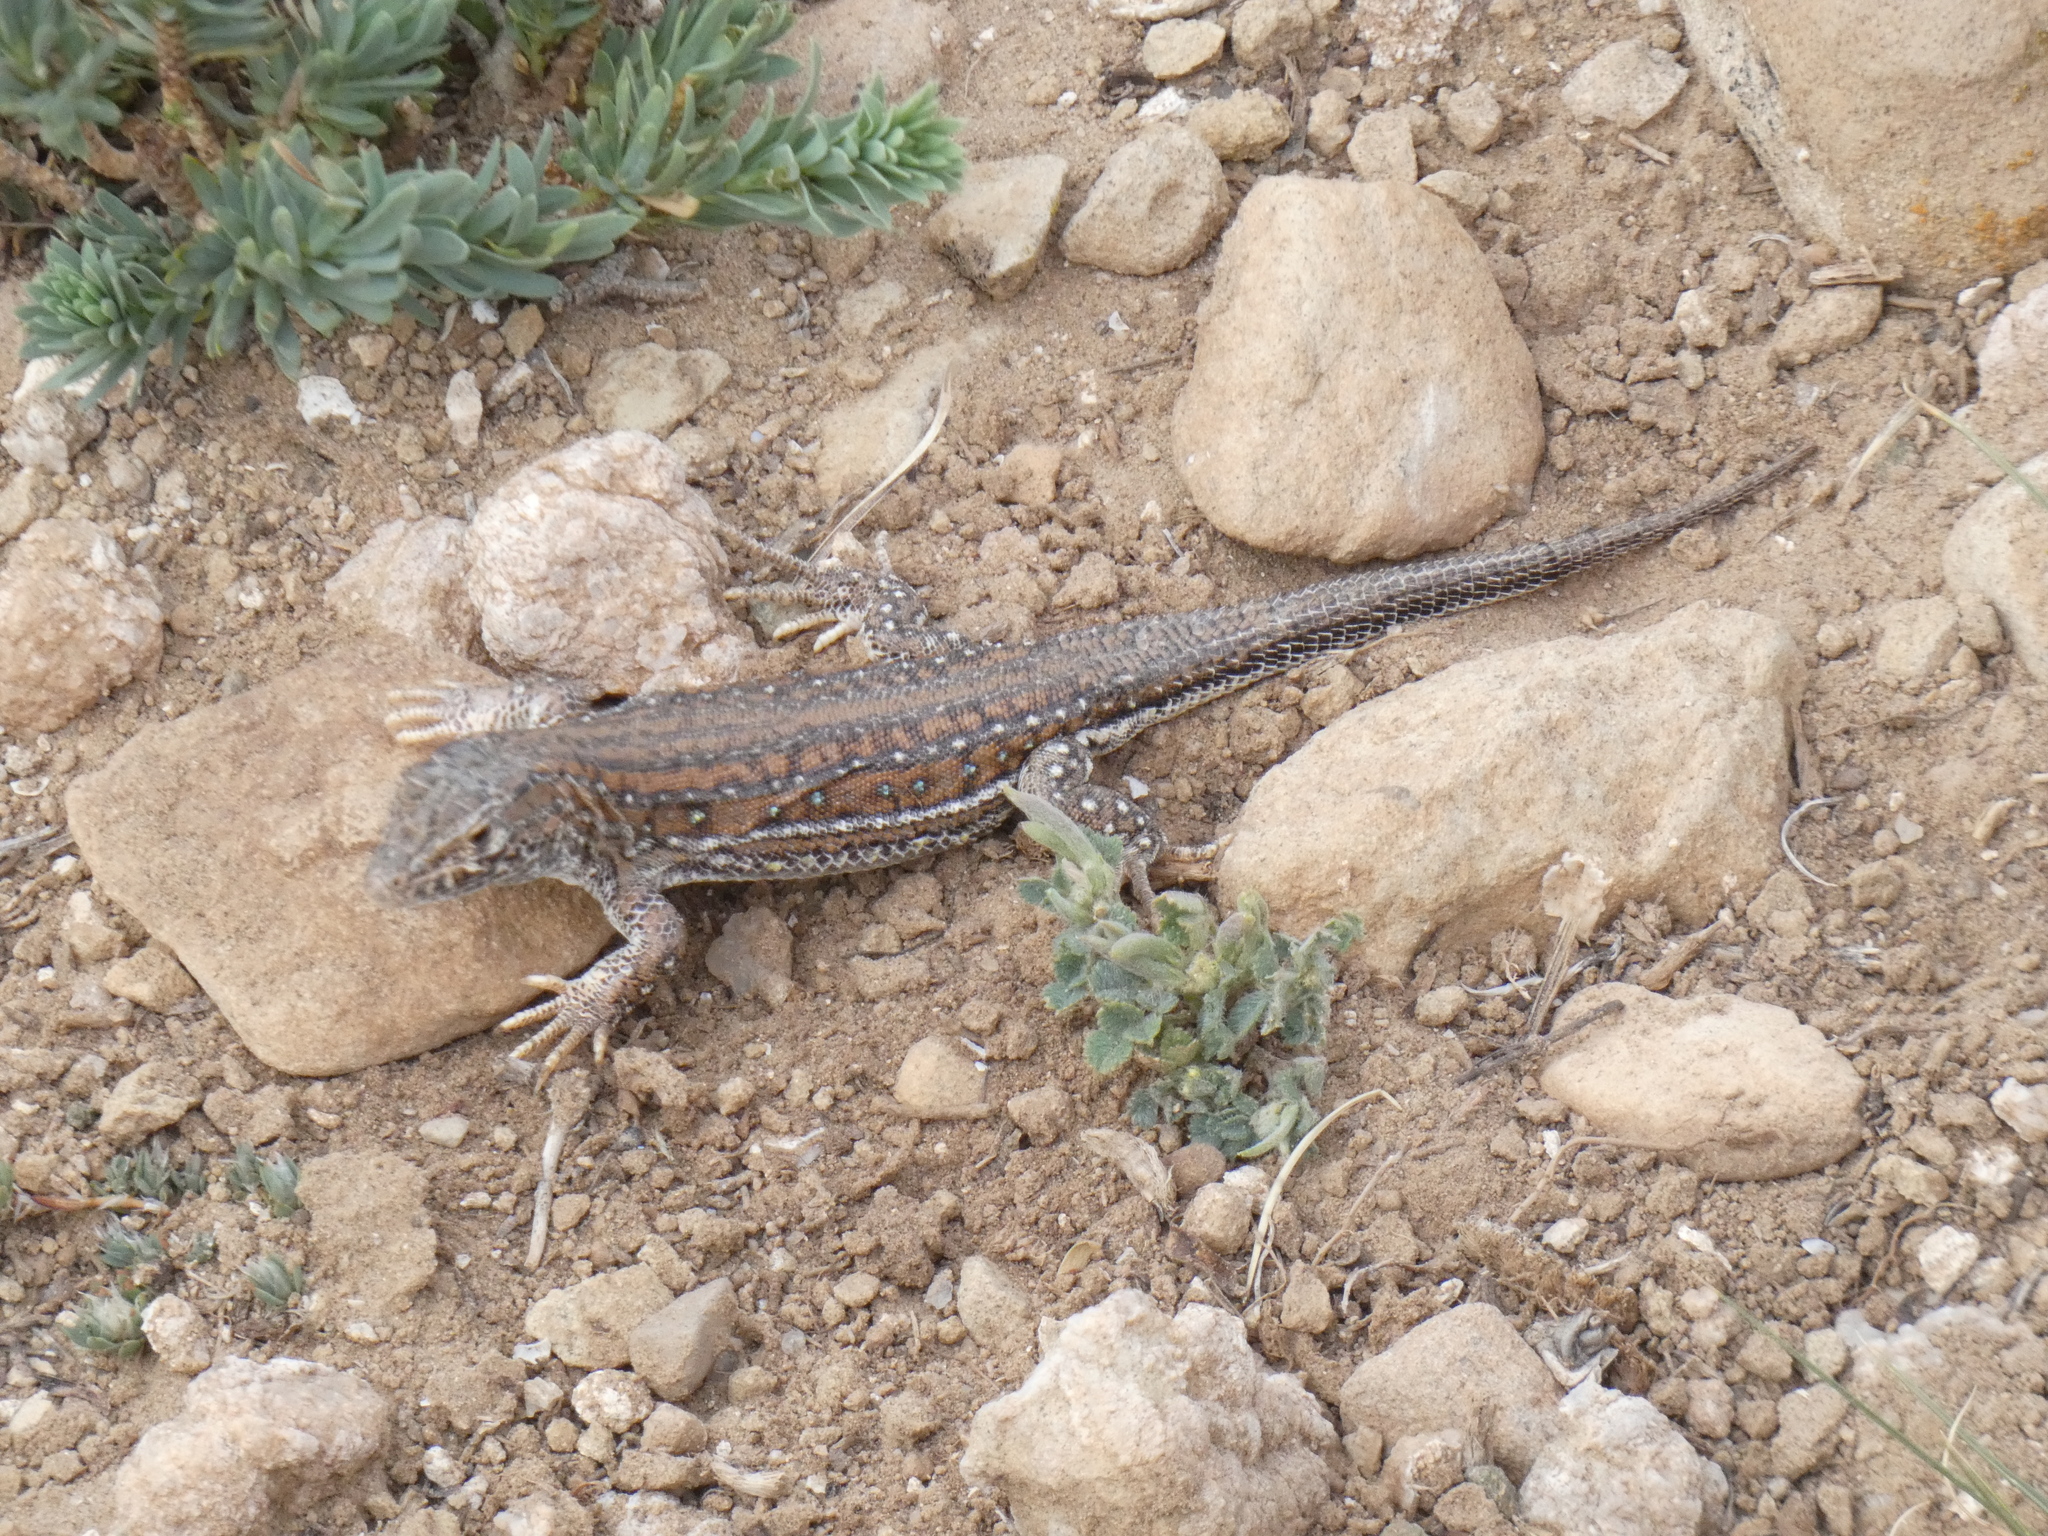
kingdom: Animalia
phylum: Chordata
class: Squamata
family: Lacertidae
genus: Acanthodactylus
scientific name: Acanthodactylus erythrurus
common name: Spiny-footed lizard
